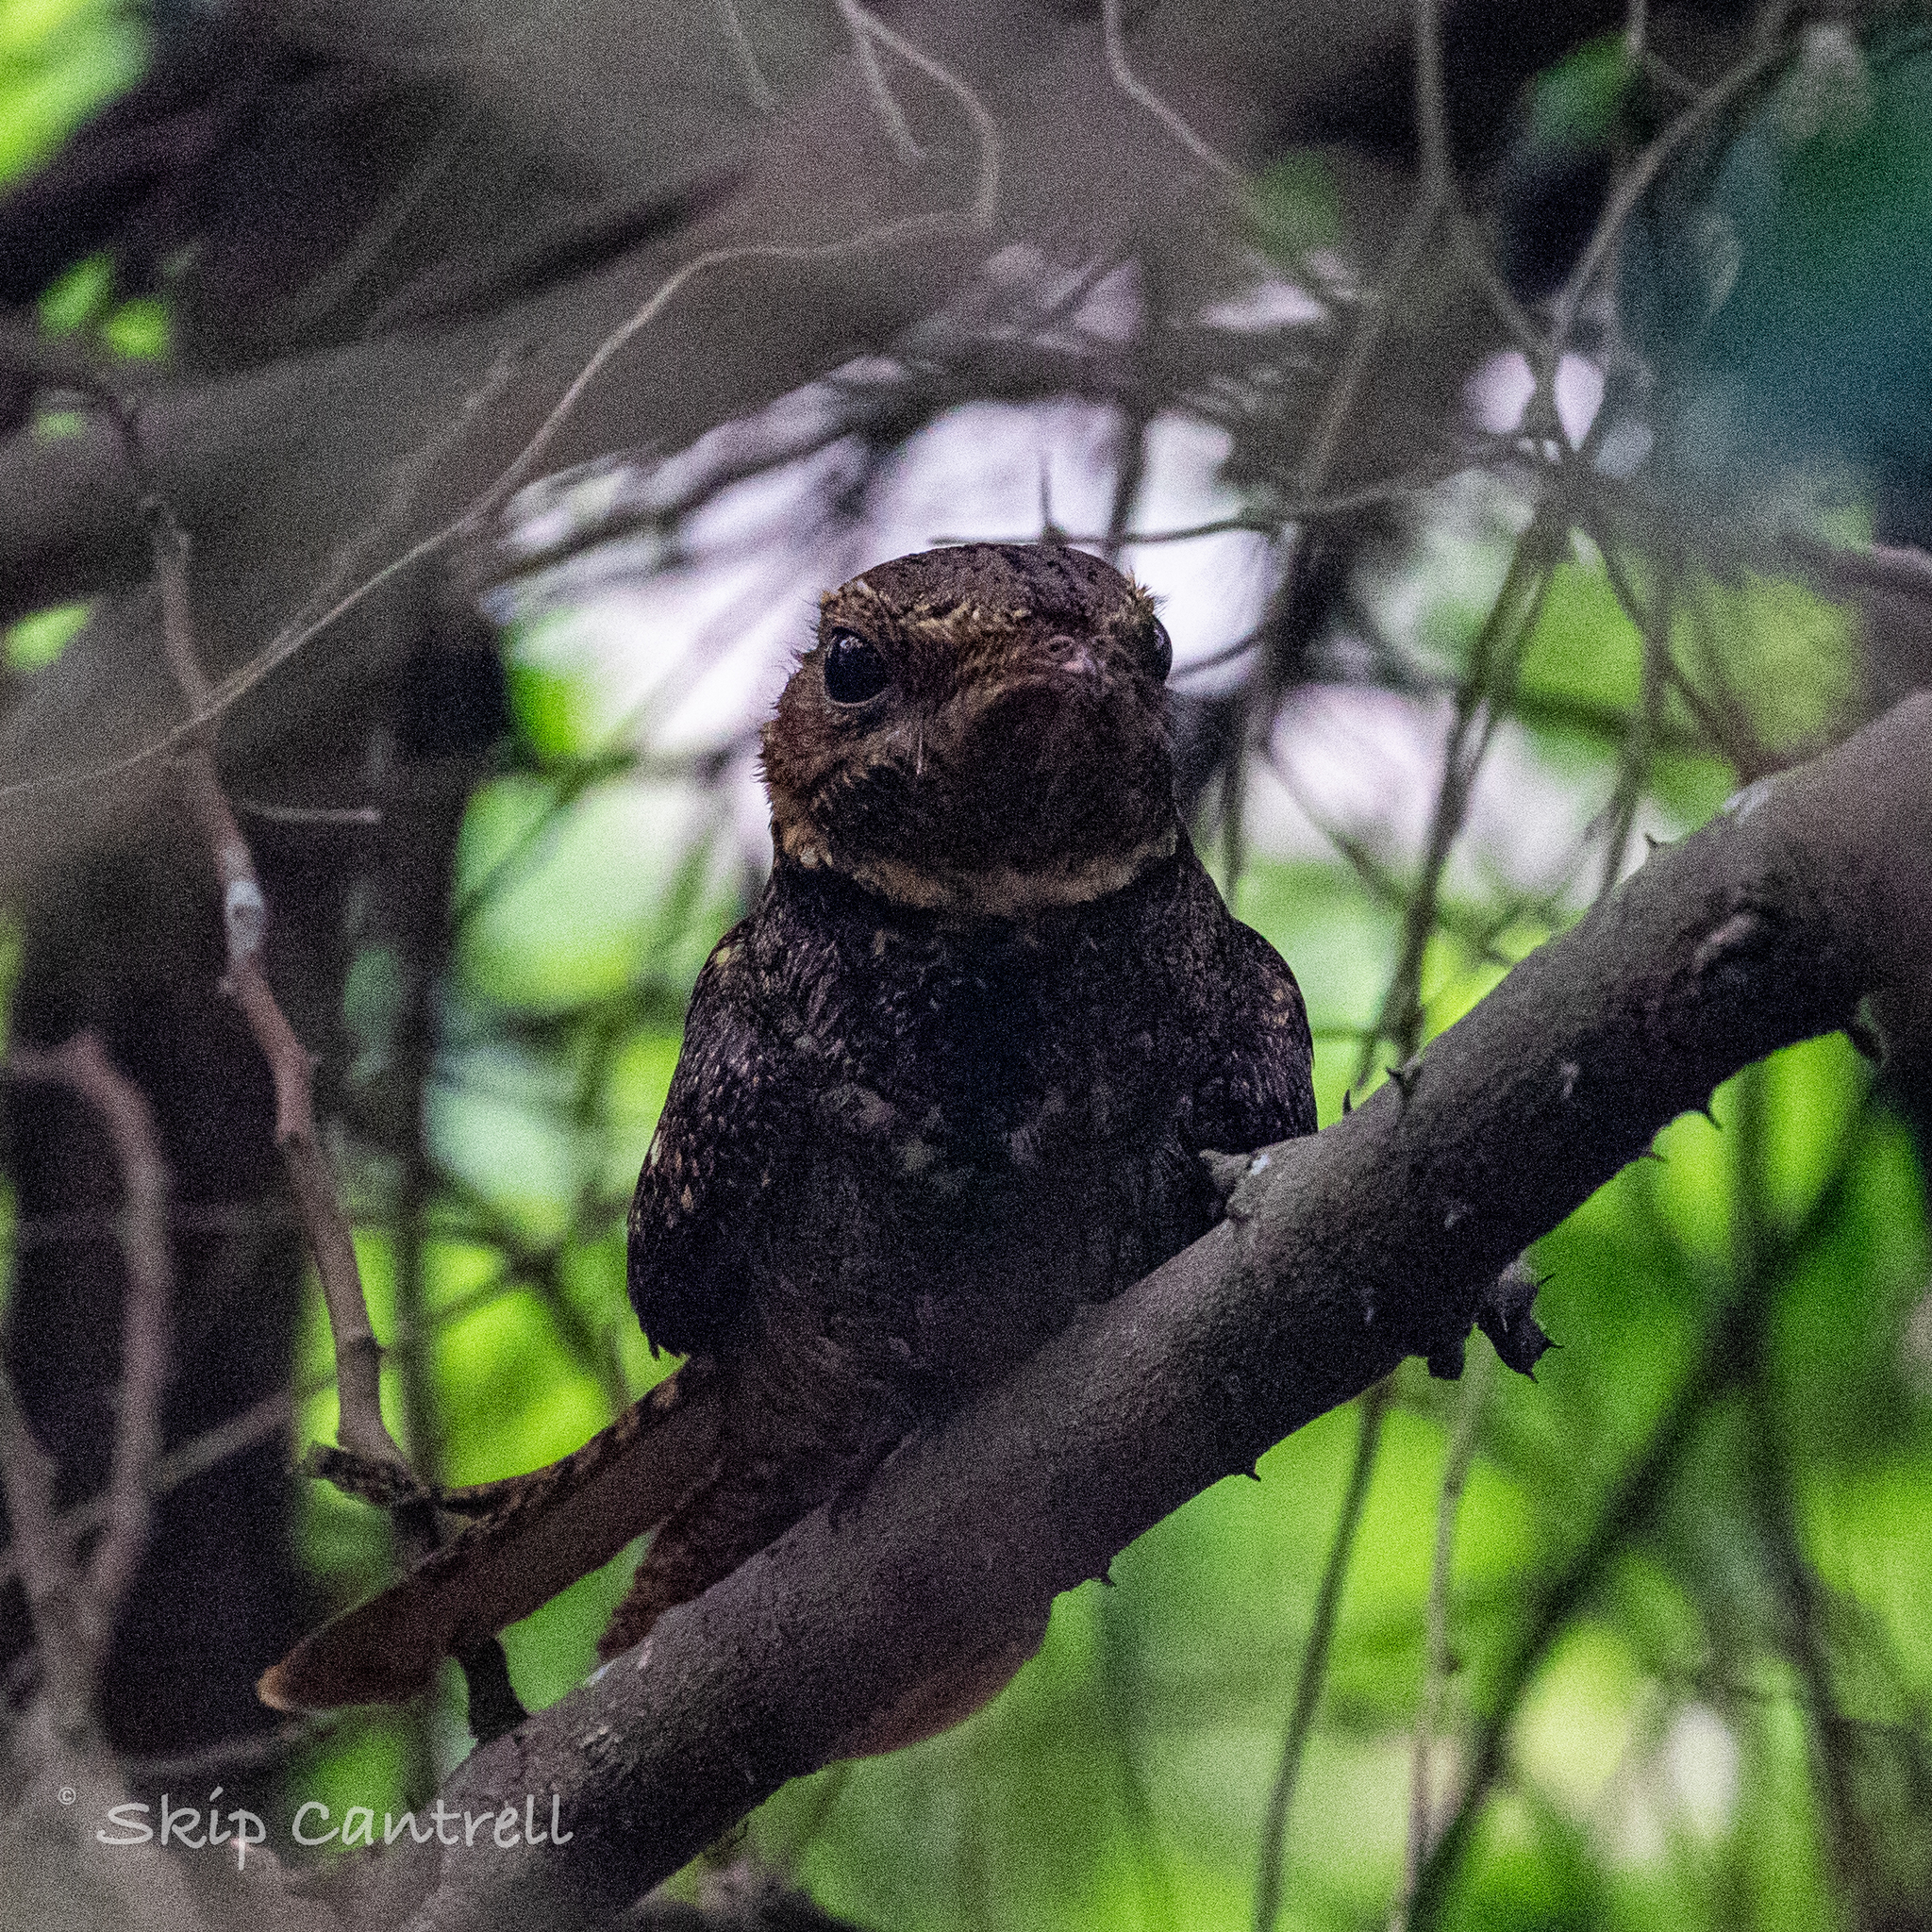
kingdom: Animalia
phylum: Chordata
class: Aves
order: Caprimulgiformes
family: Caprimulgidae
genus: Antrostomus
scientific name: Antrostomus carolinensis
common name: Chuck-will's-widow
